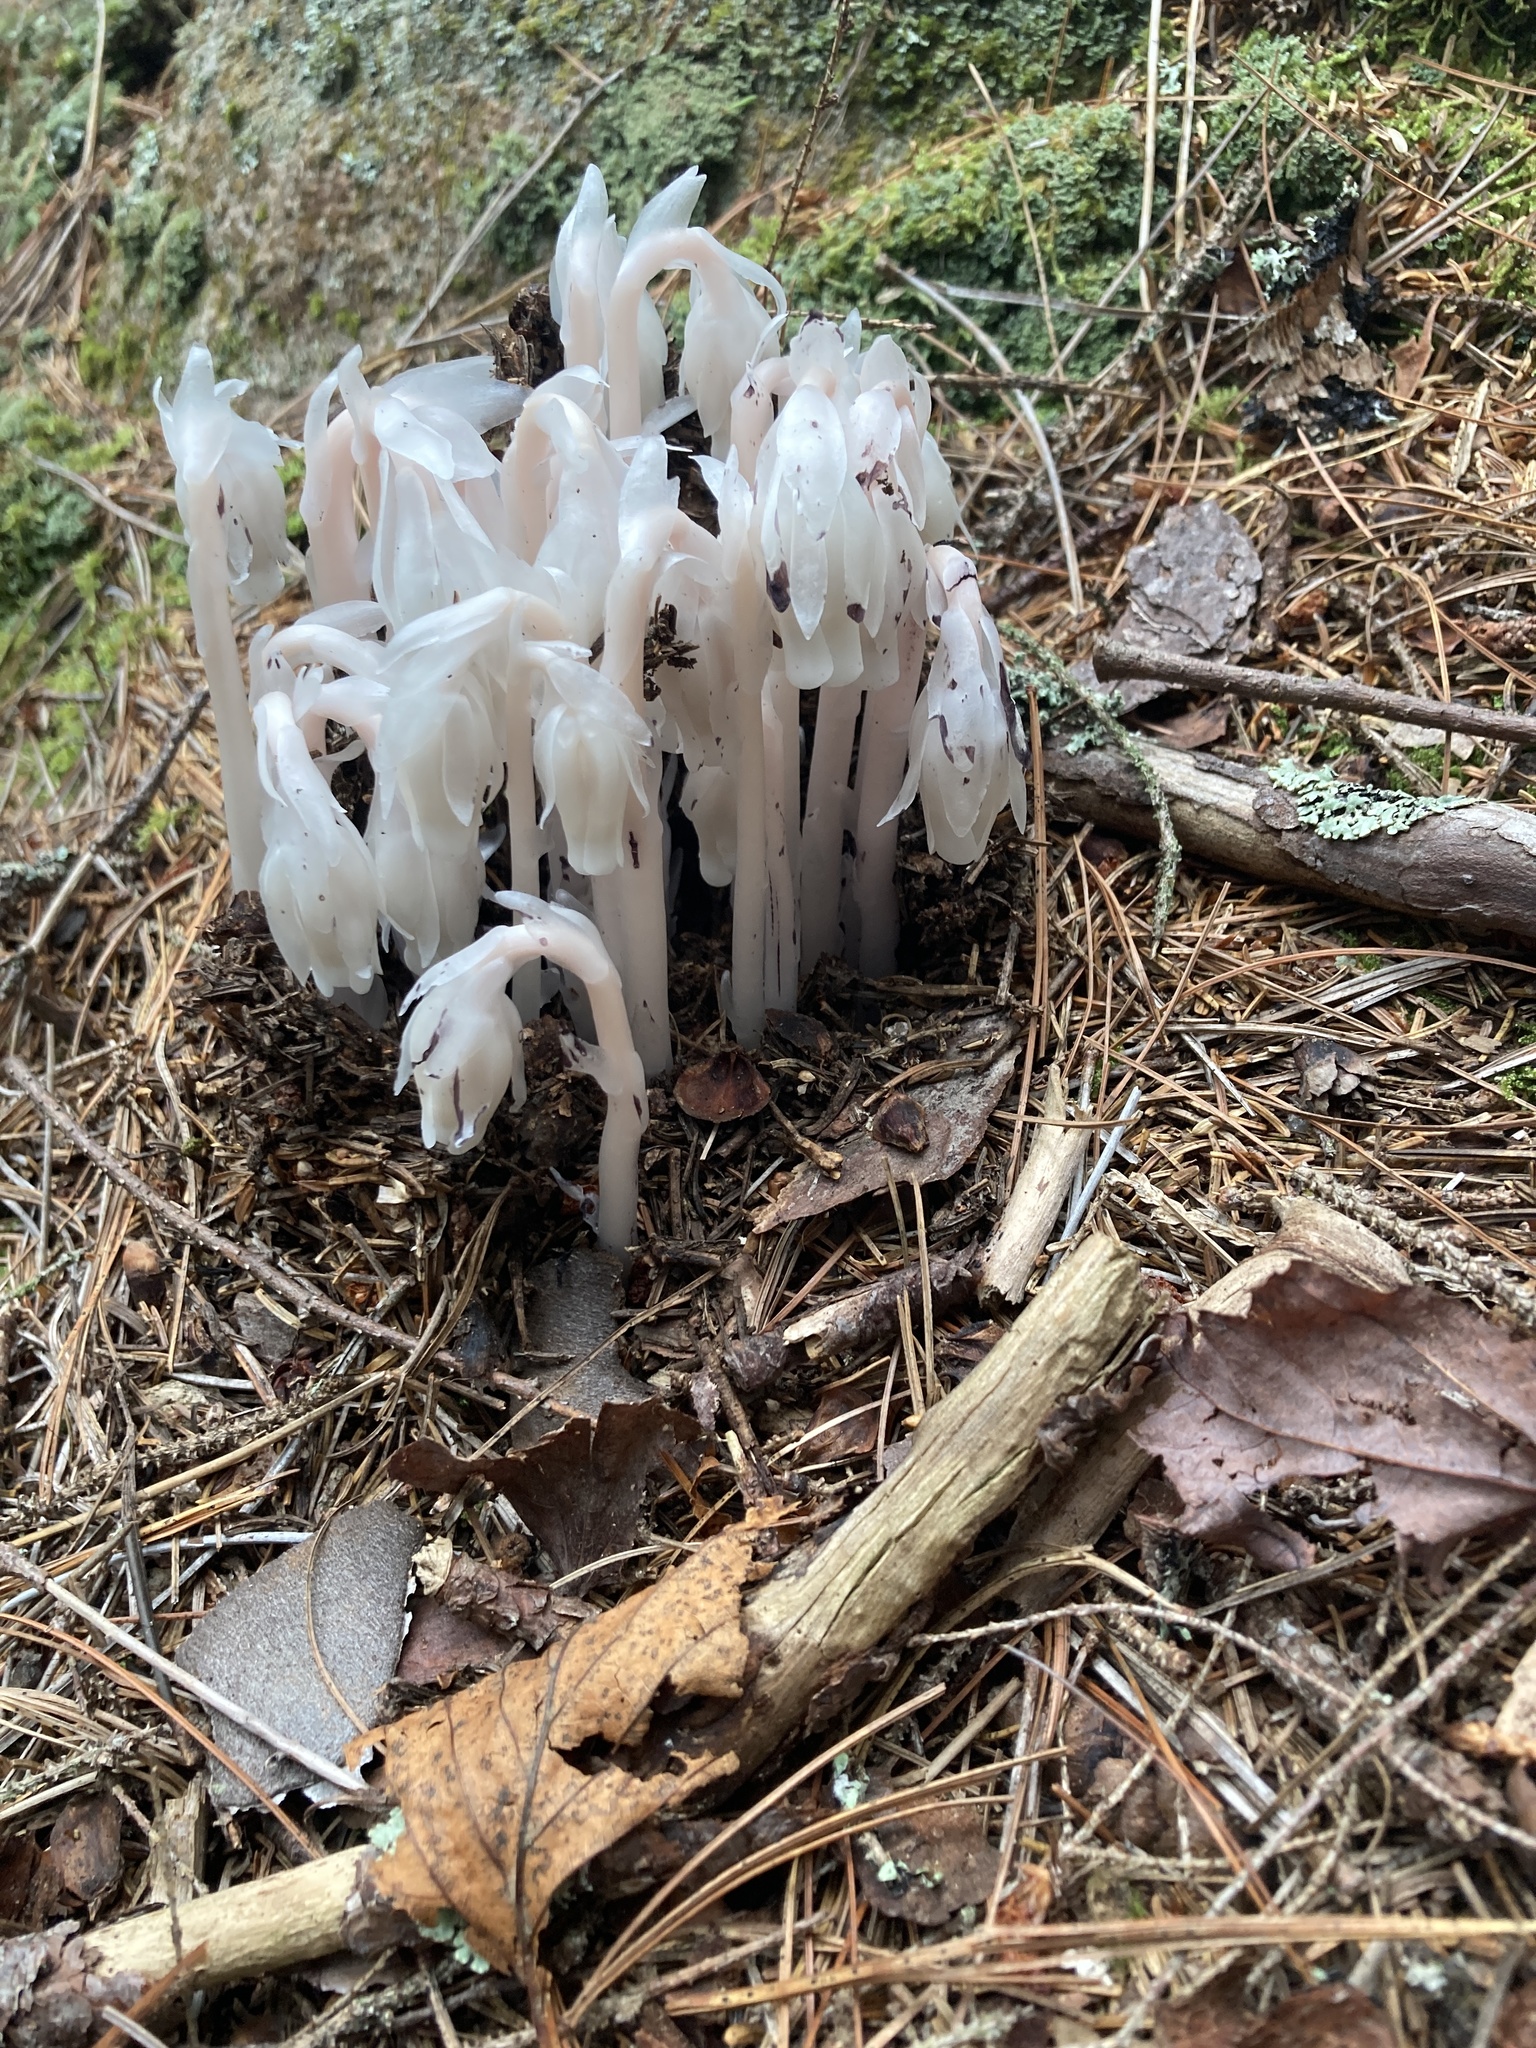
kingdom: Plantae
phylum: Tracheophyta
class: Magnoliopsida
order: Ericales
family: Ericaceae
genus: Monotropa
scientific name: Monotropa uniflora
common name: Convulsion root
